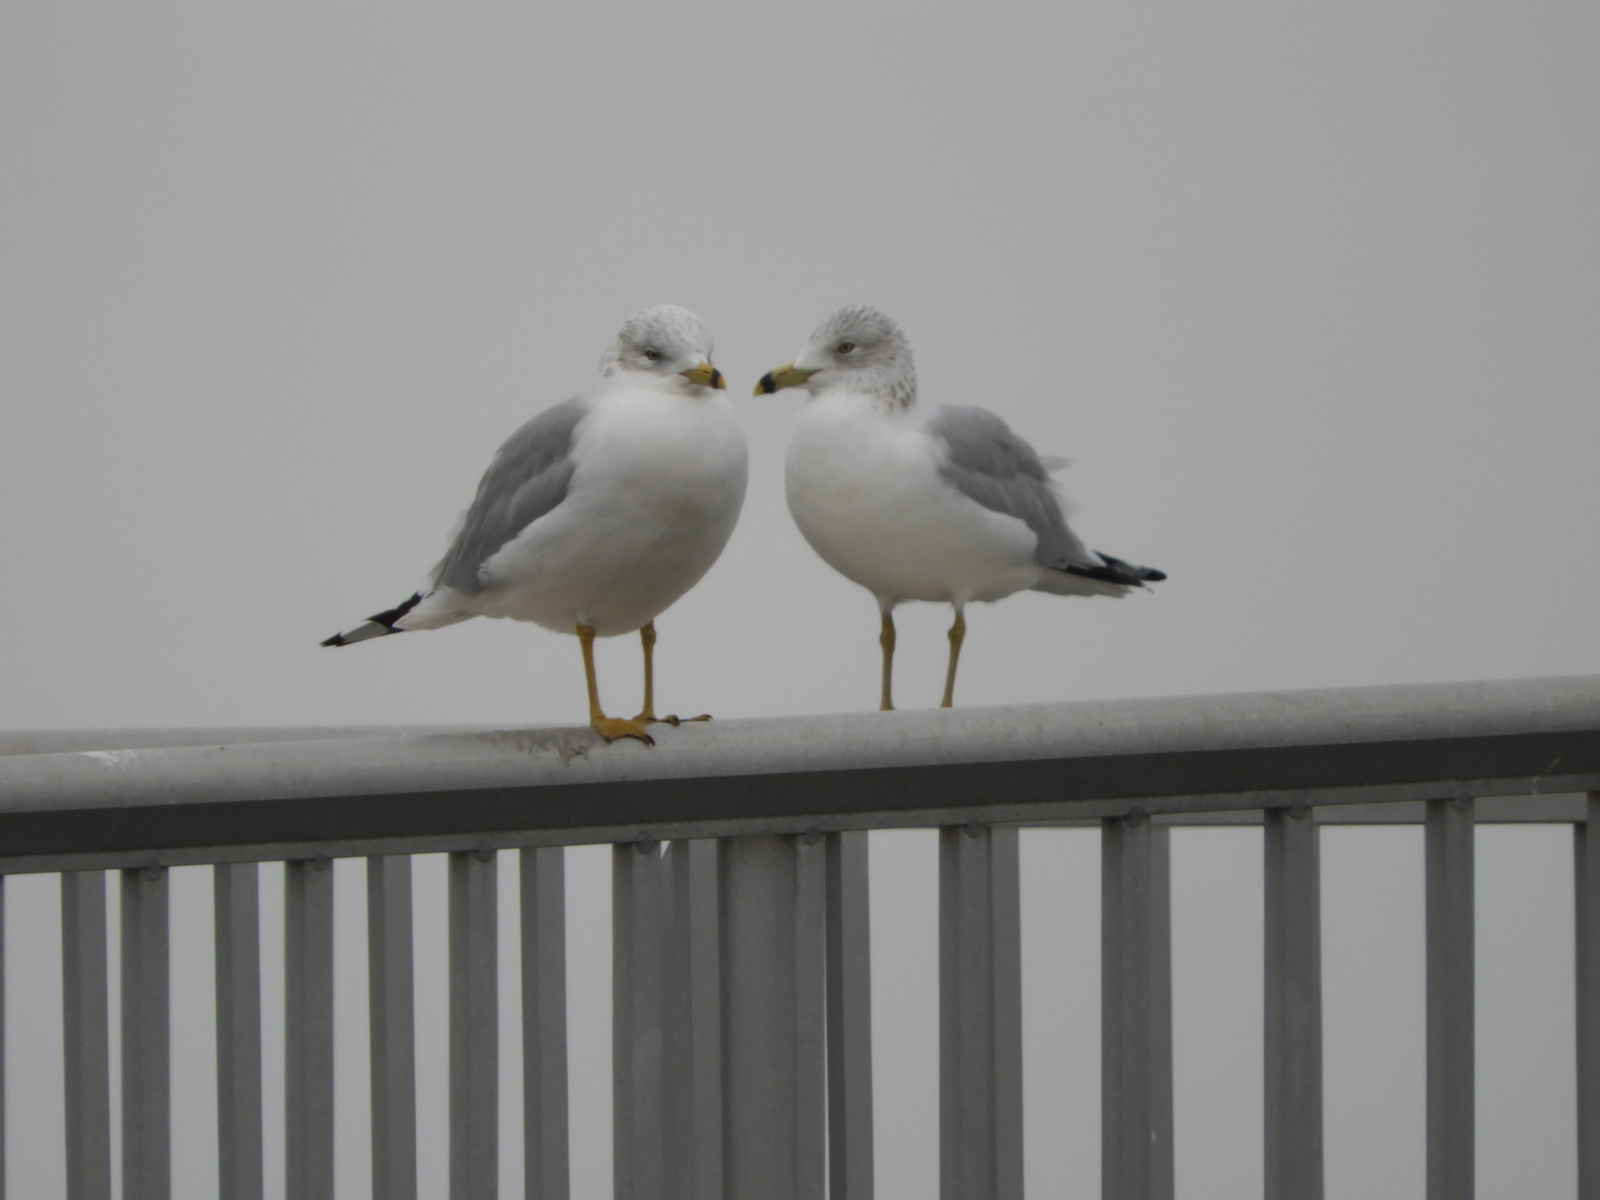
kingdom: Animalia
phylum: Chordata
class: Aves
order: Charadriiformes
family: Laridae
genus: Larus
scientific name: Larus delawarensis
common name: Ring-billed gull
